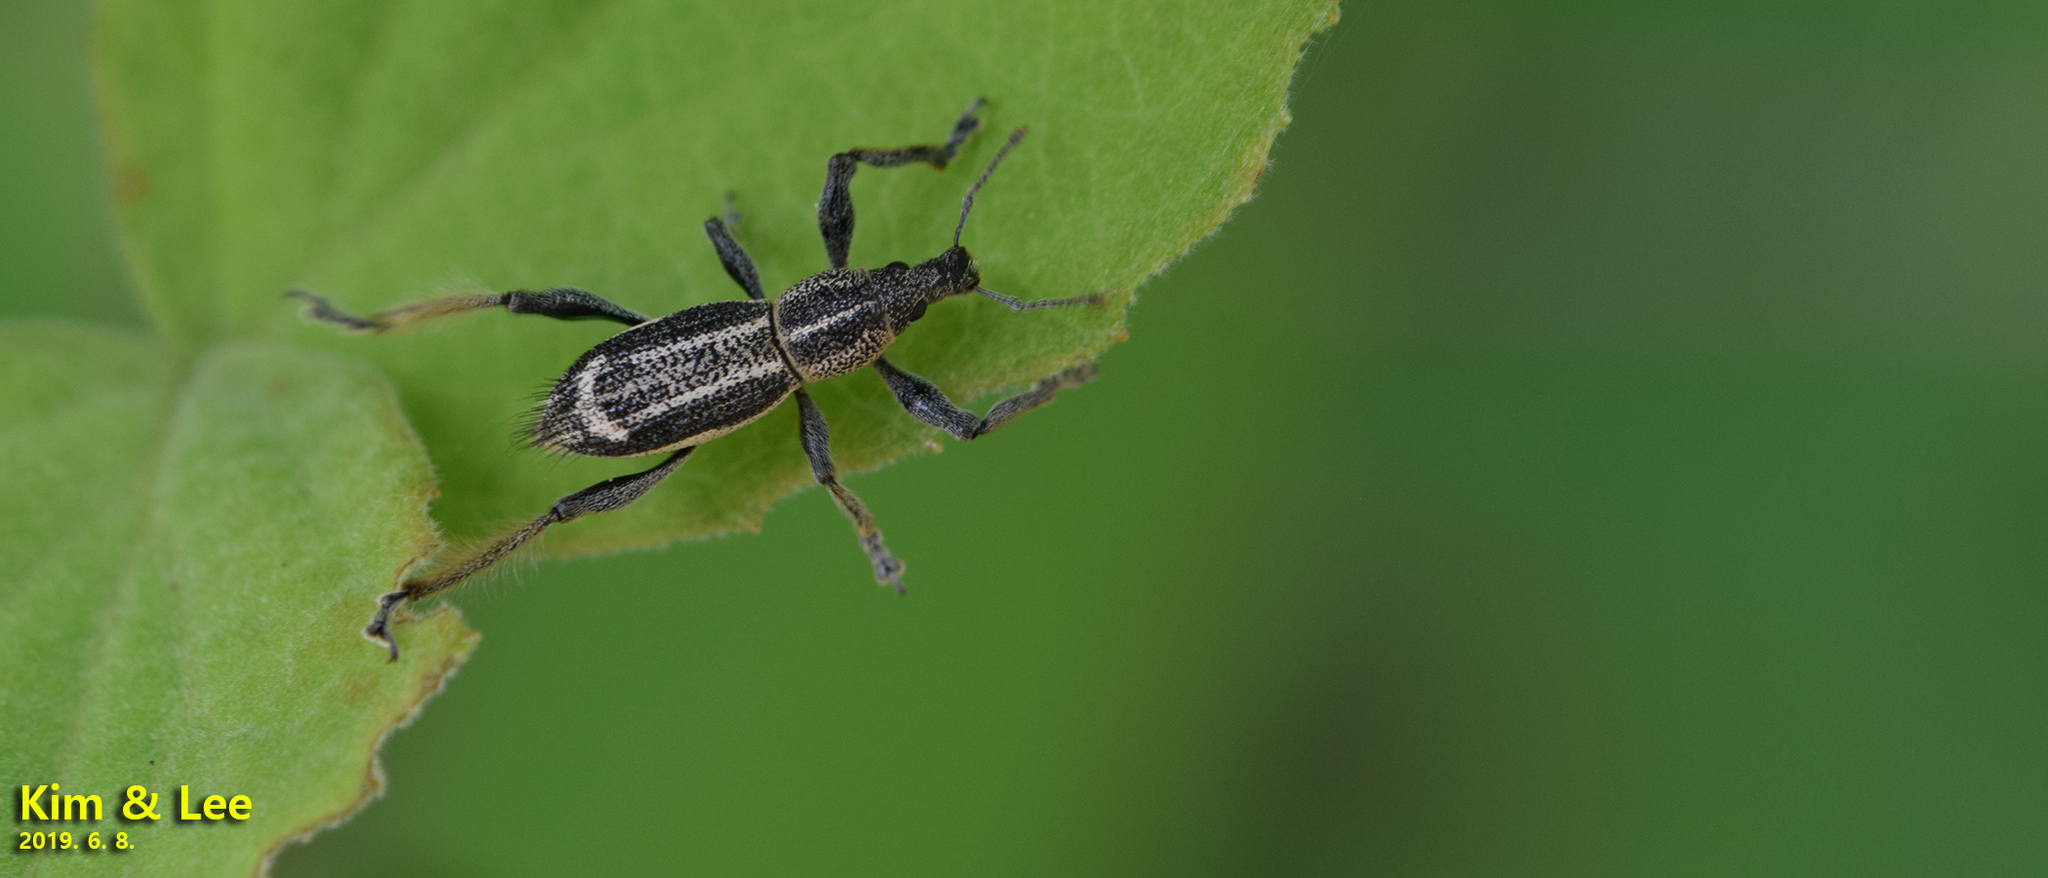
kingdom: Animalia
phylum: Arthropoda
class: Insecta
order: Coleoptera
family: Curculionidae
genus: Enaptorhinus
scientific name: Enaptorhinus granulatus
